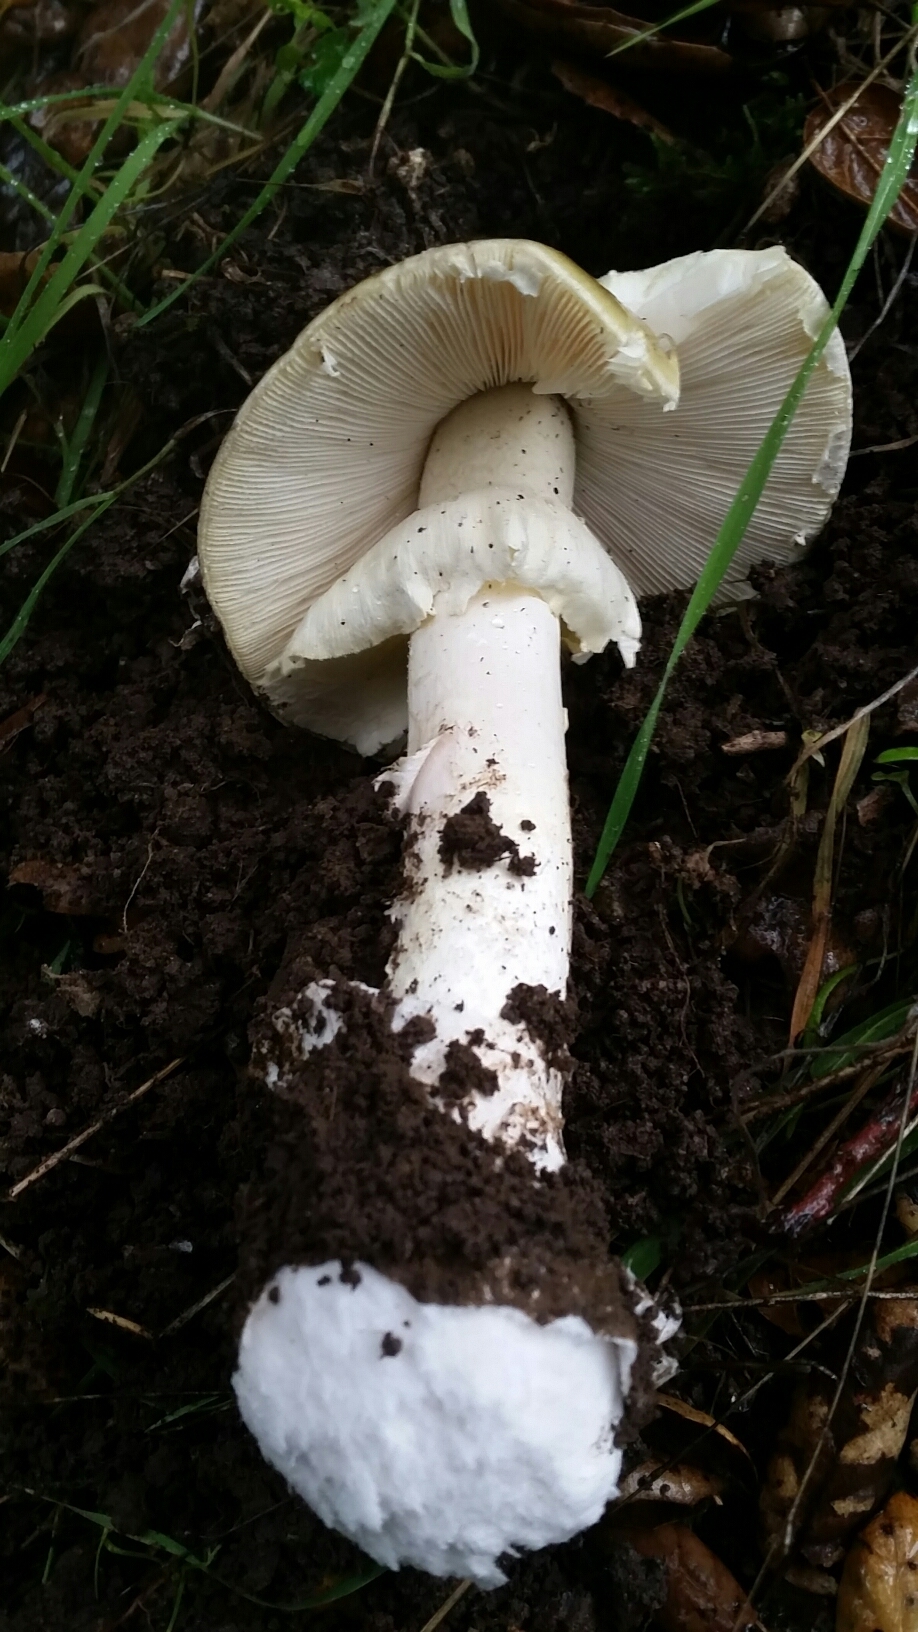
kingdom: Fungi
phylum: Basidiomycota
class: Agaricomycetes
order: Agaricales
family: Amanitaceae
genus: Amanita
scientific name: Amanita phalloides
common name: Death cap
